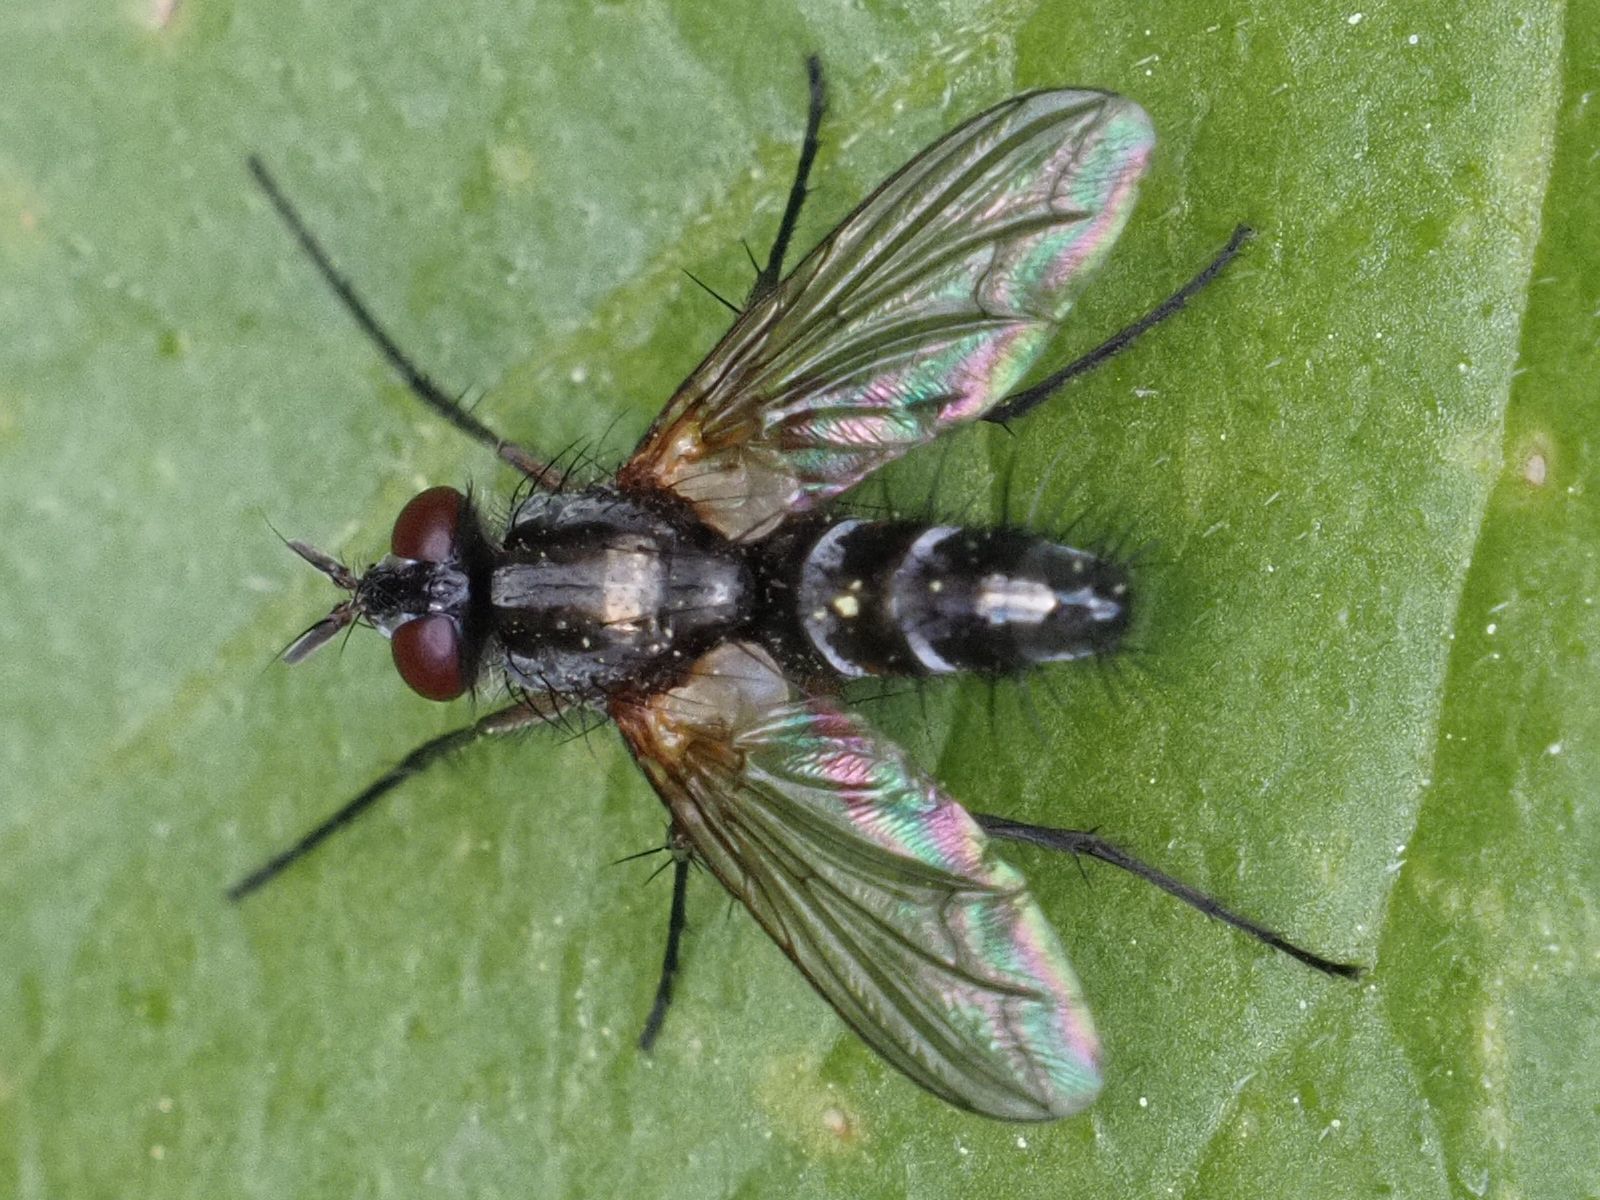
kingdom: Animalia
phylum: Arthropoda
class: Insecta
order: Diptera
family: Tachinidae
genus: Mintho
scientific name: Mintho rufiventris
